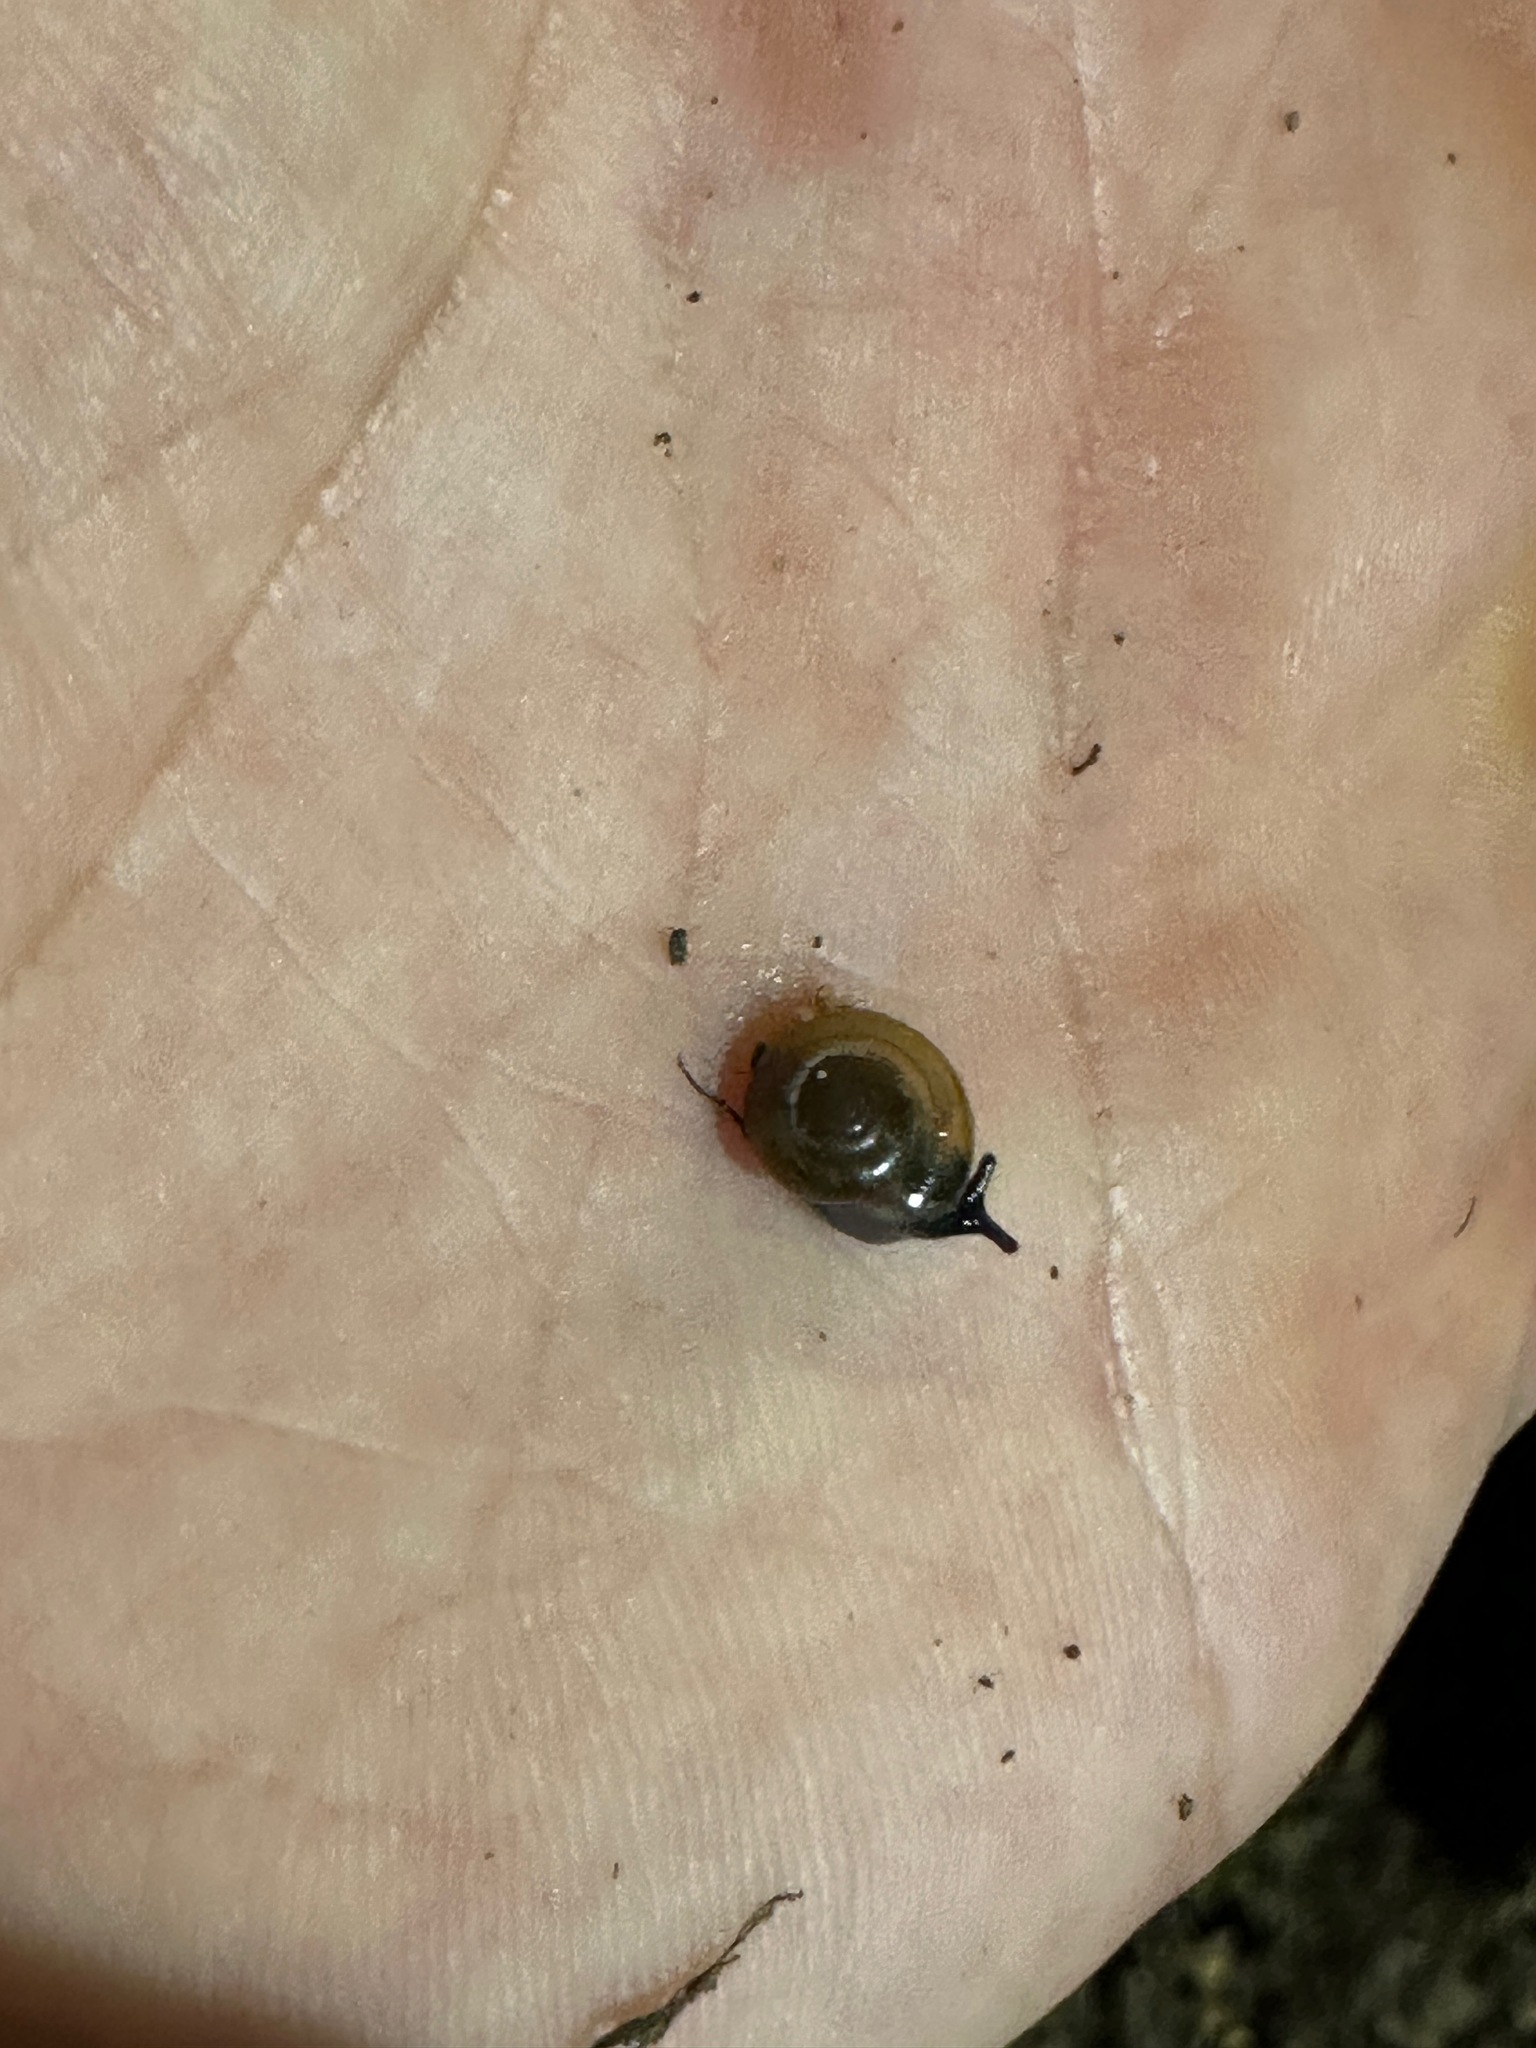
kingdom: Animalia
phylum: Mollusca
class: Gastropoda
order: Stylommatophora
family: Oxychilidae
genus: Oxychilus
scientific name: Oxychilus draparnaudi
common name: Draparnaud's glass snail
